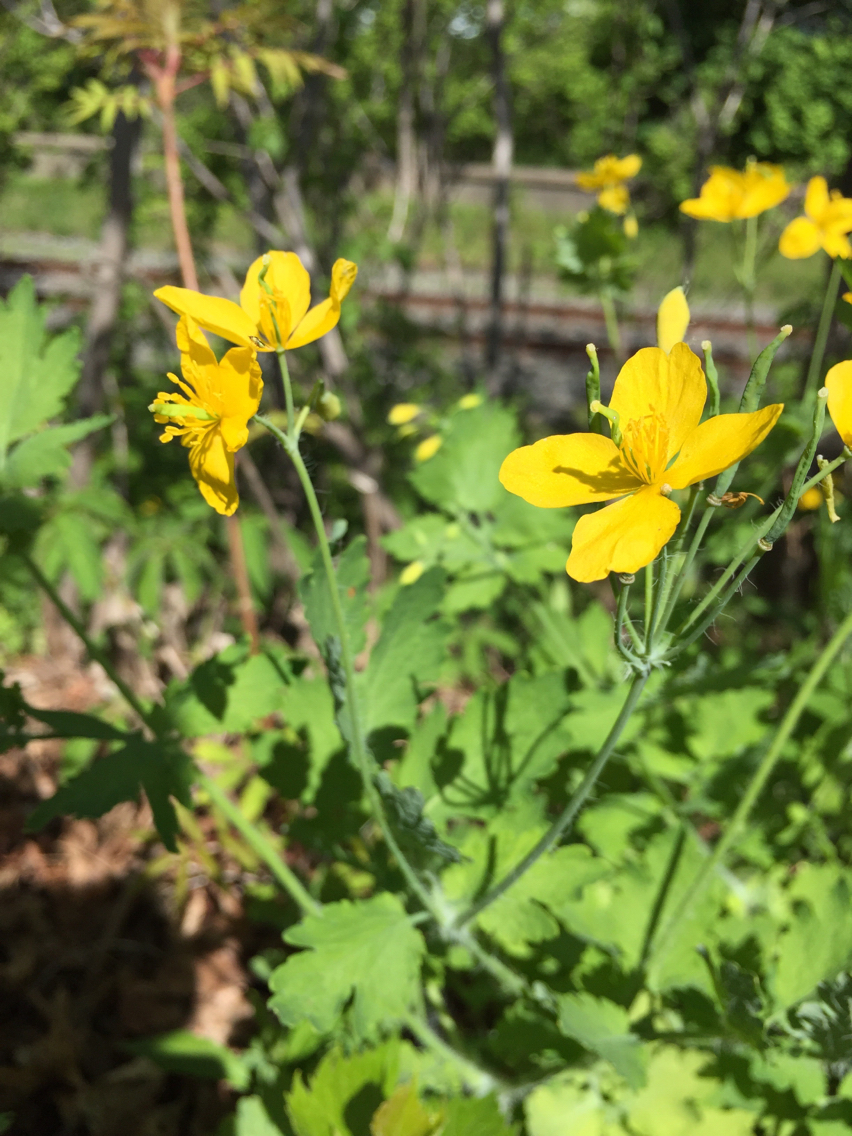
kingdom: Plantae
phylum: Tracheophyta
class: Magnoliopsida
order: Ranunculales
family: Papaveraceae
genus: Chelidonium
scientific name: Chelidonium majus
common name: Greater celandine
